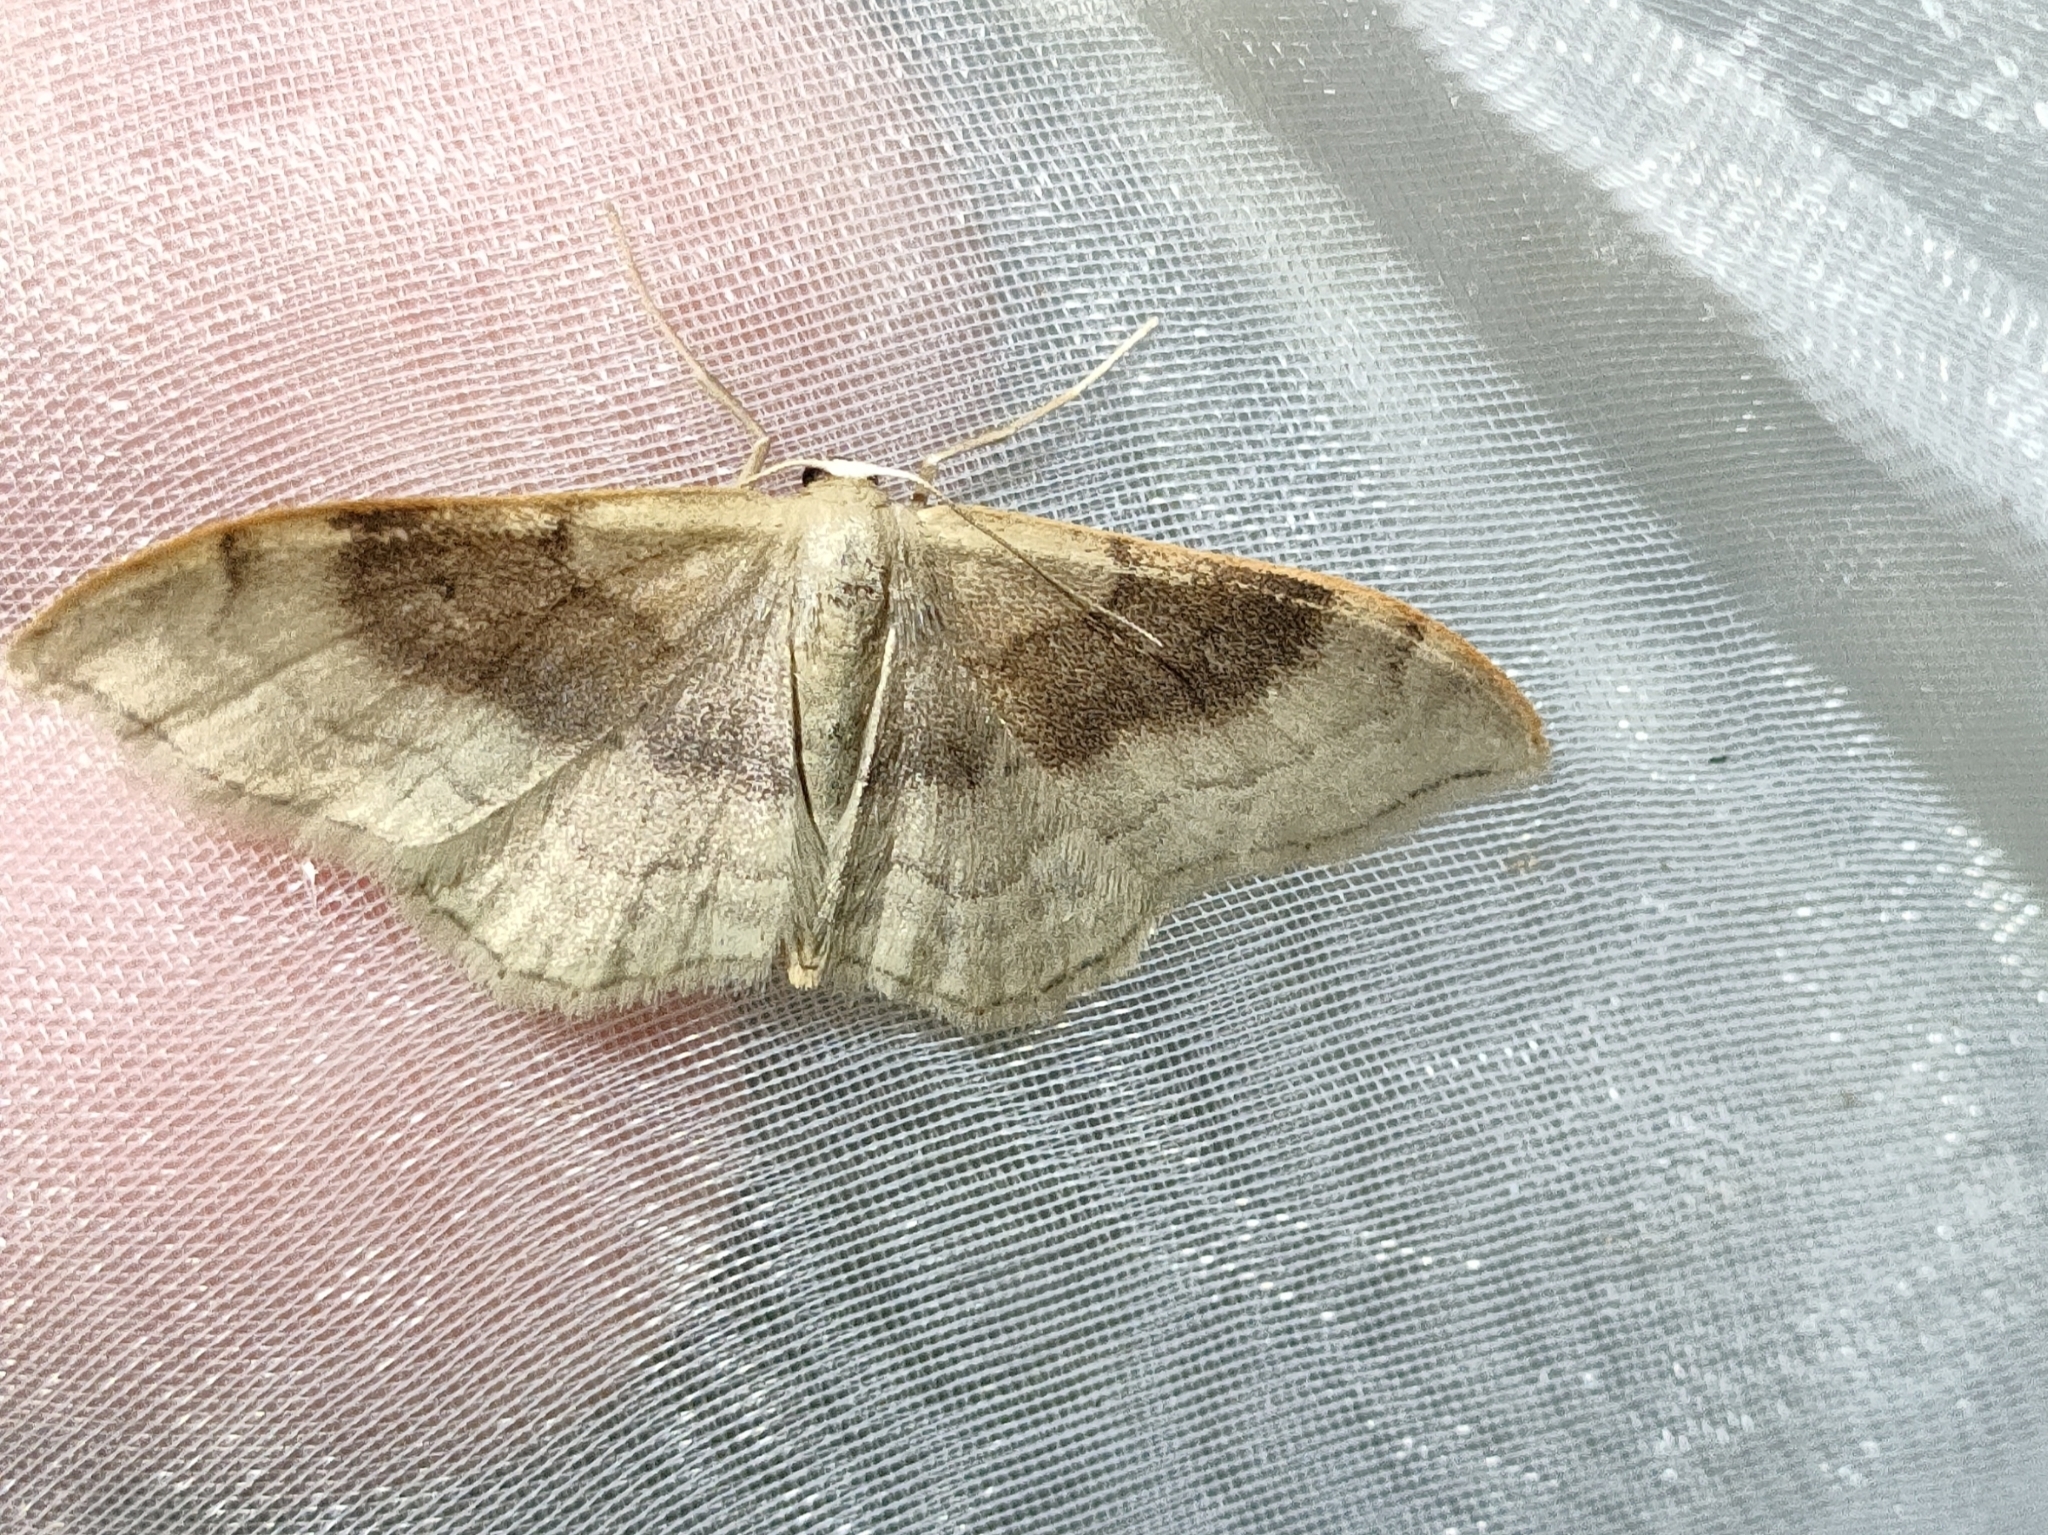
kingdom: Animalia
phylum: Arthropoda
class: Insecta
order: Lepidoptera
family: Geometridae
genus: Idaea
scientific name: Idaea degeneraria
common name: Portland ribbon wave
